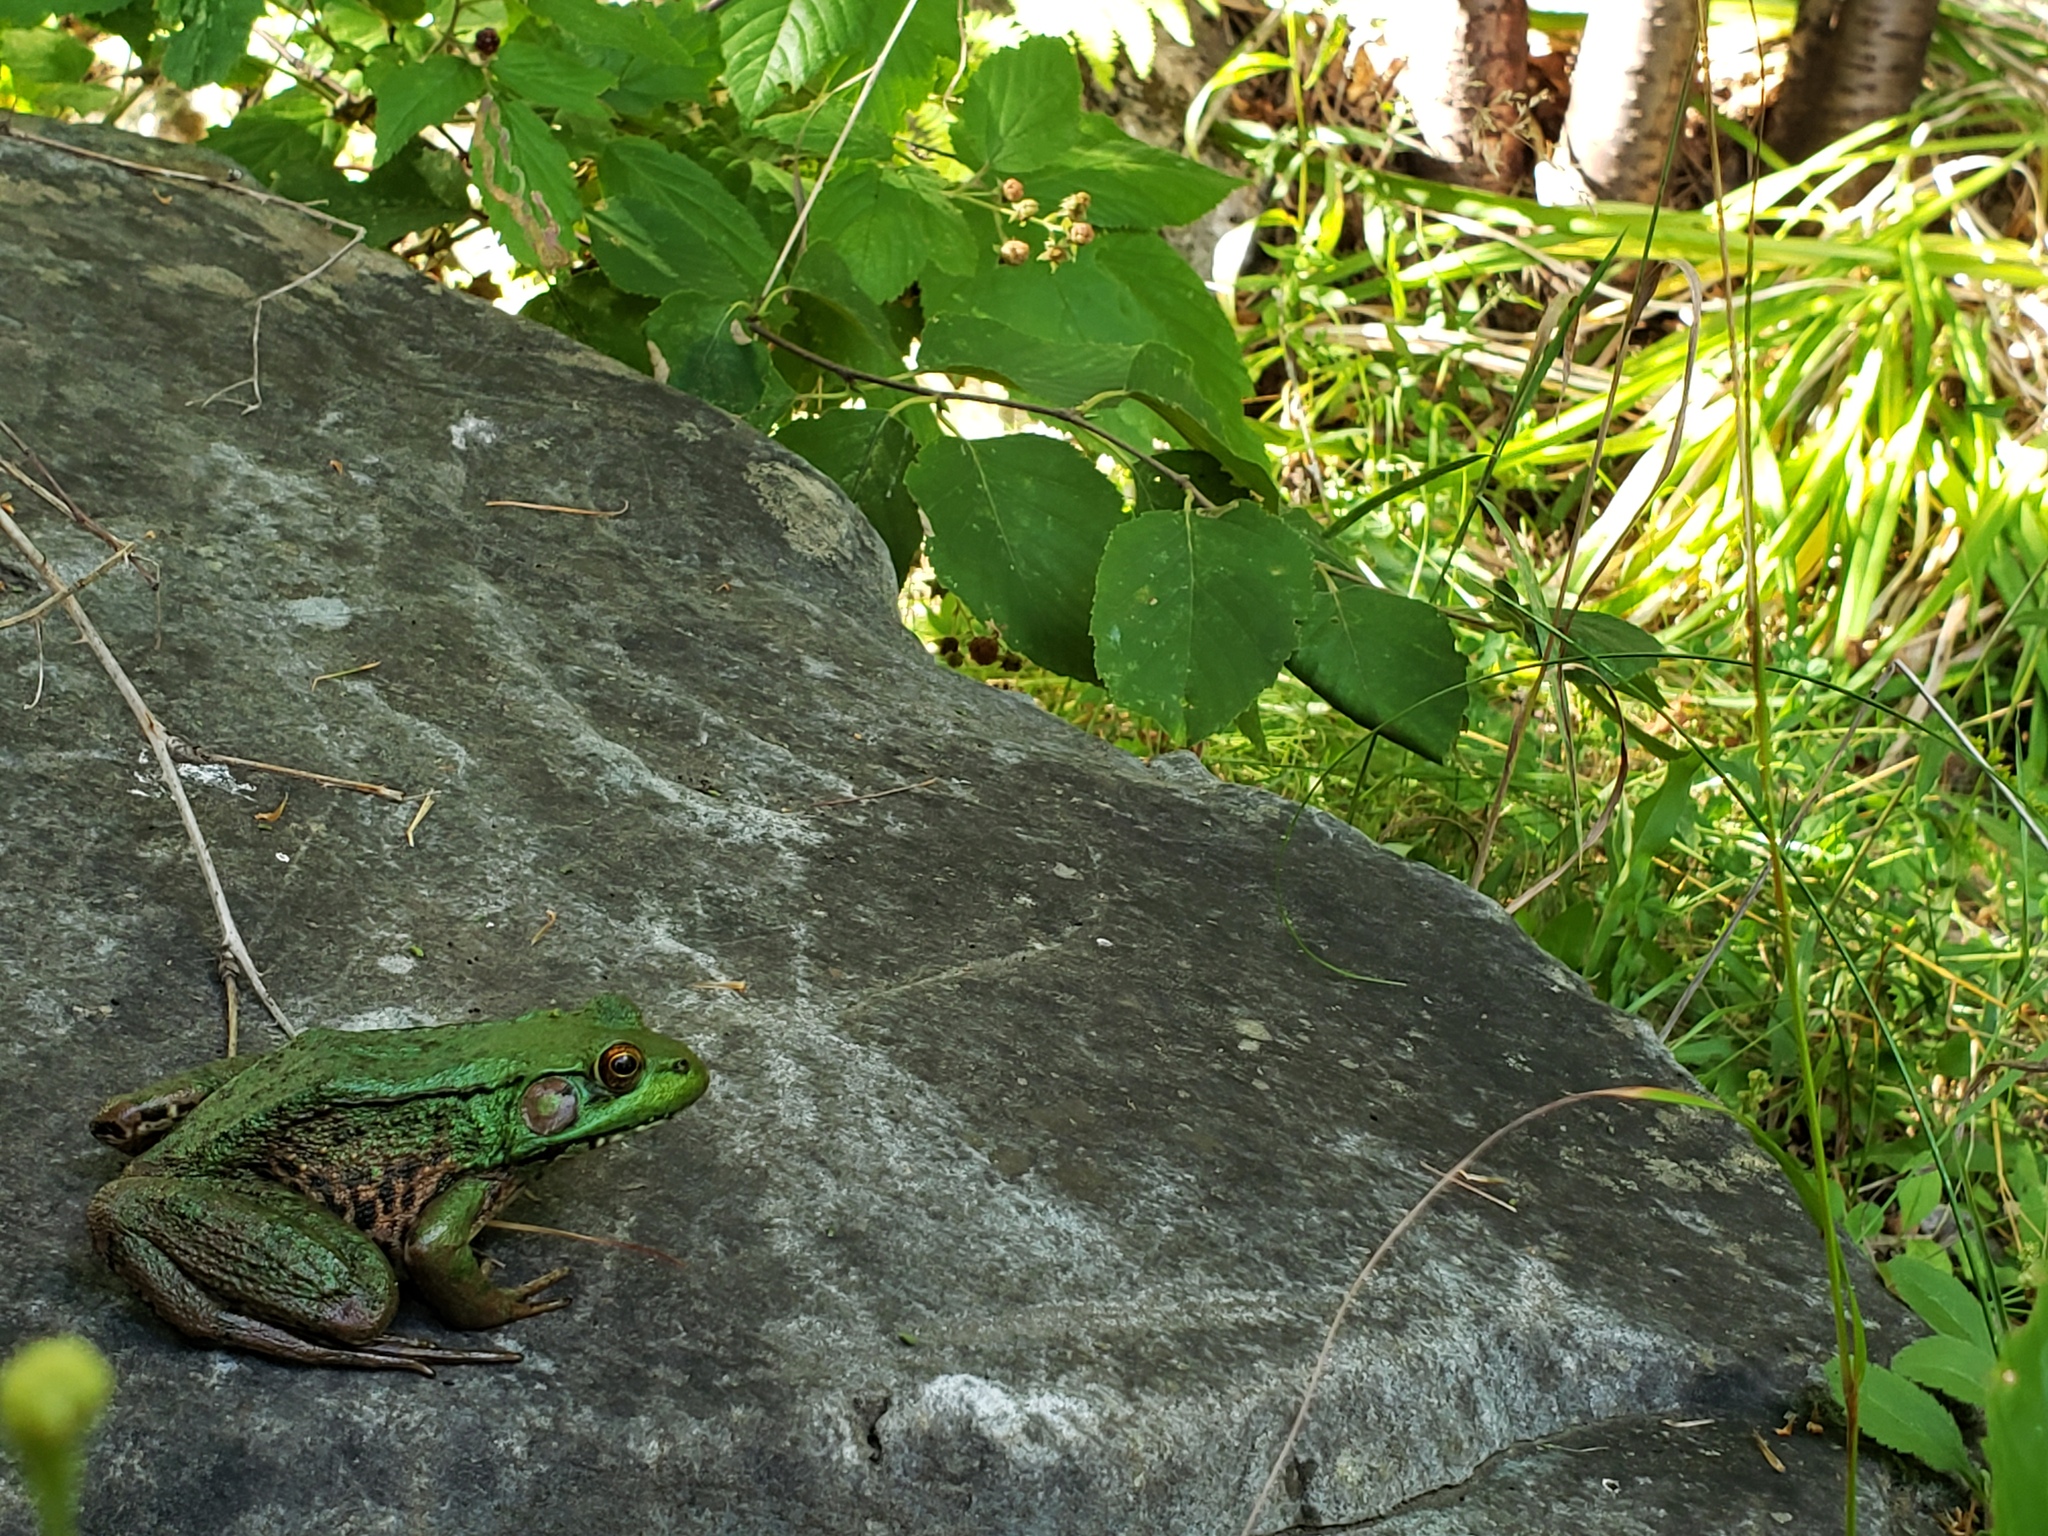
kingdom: Animalia
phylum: Chordata
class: Amphibia
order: Anura
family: Ranidae
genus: Lithobates
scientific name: Lithobates clamitans
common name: Green frog
